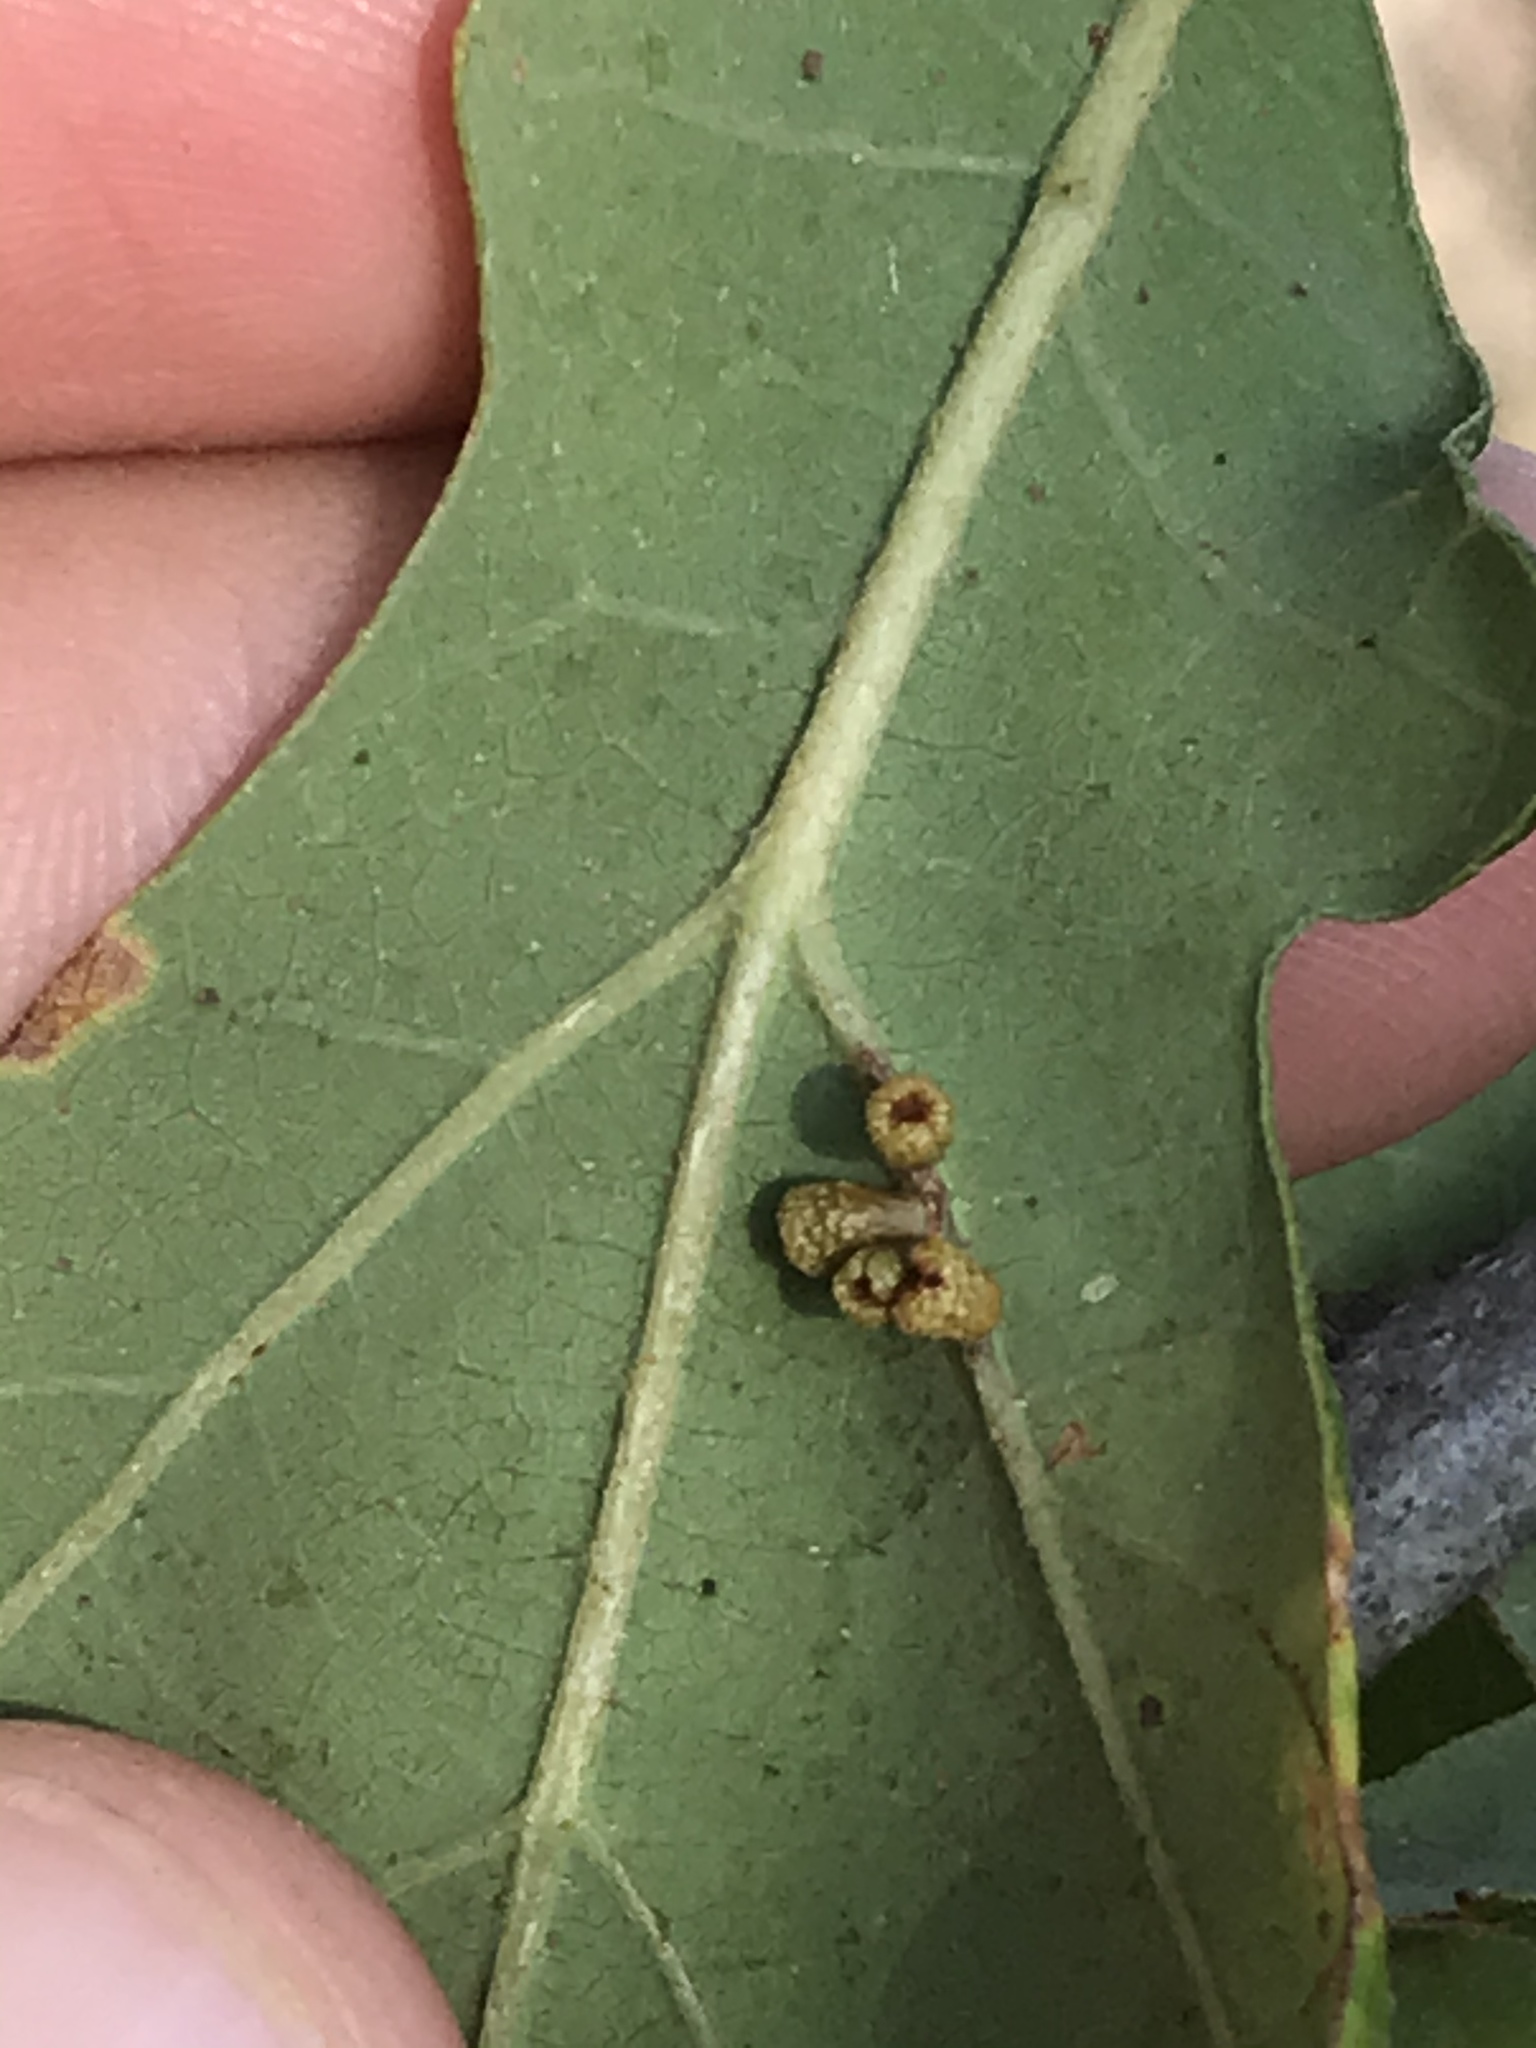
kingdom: Animalia
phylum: Arthropoda
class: Insecta
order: Hymenoptera
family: Cynipidae
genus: Andricus
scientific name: Andricus lustrans
